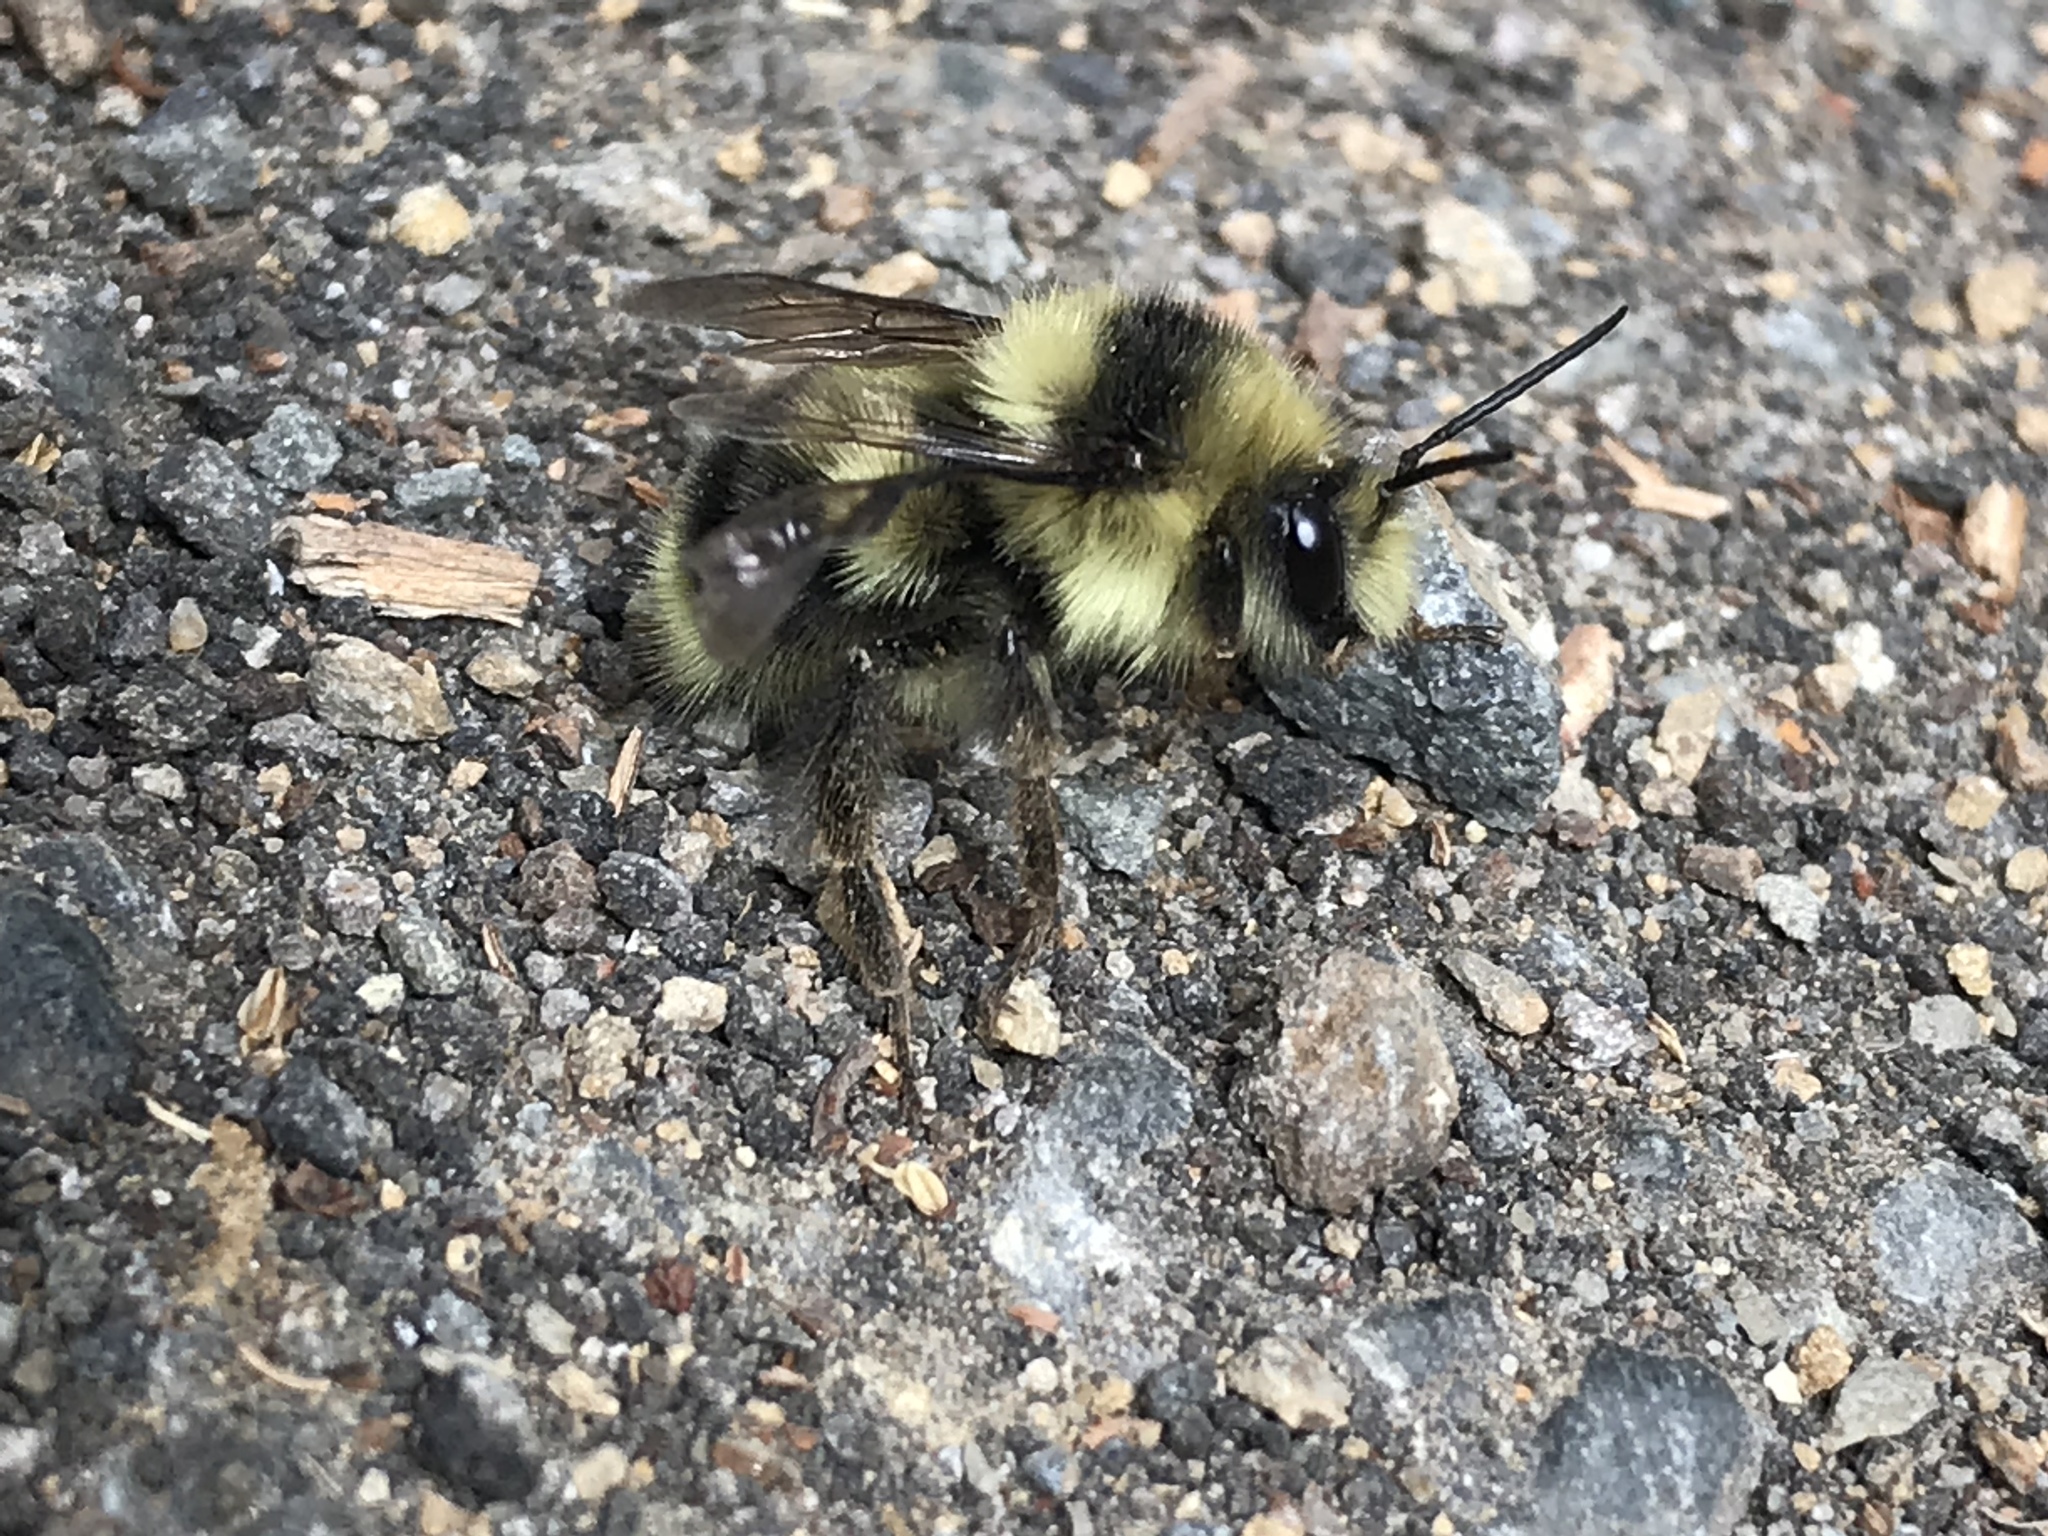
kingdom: Animalia
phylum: Arthropoda
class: Insecta
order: Hymenoptera
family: Apidae
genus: Bombus
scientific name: Bombus melanopygus
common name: Black tail bumble bee
